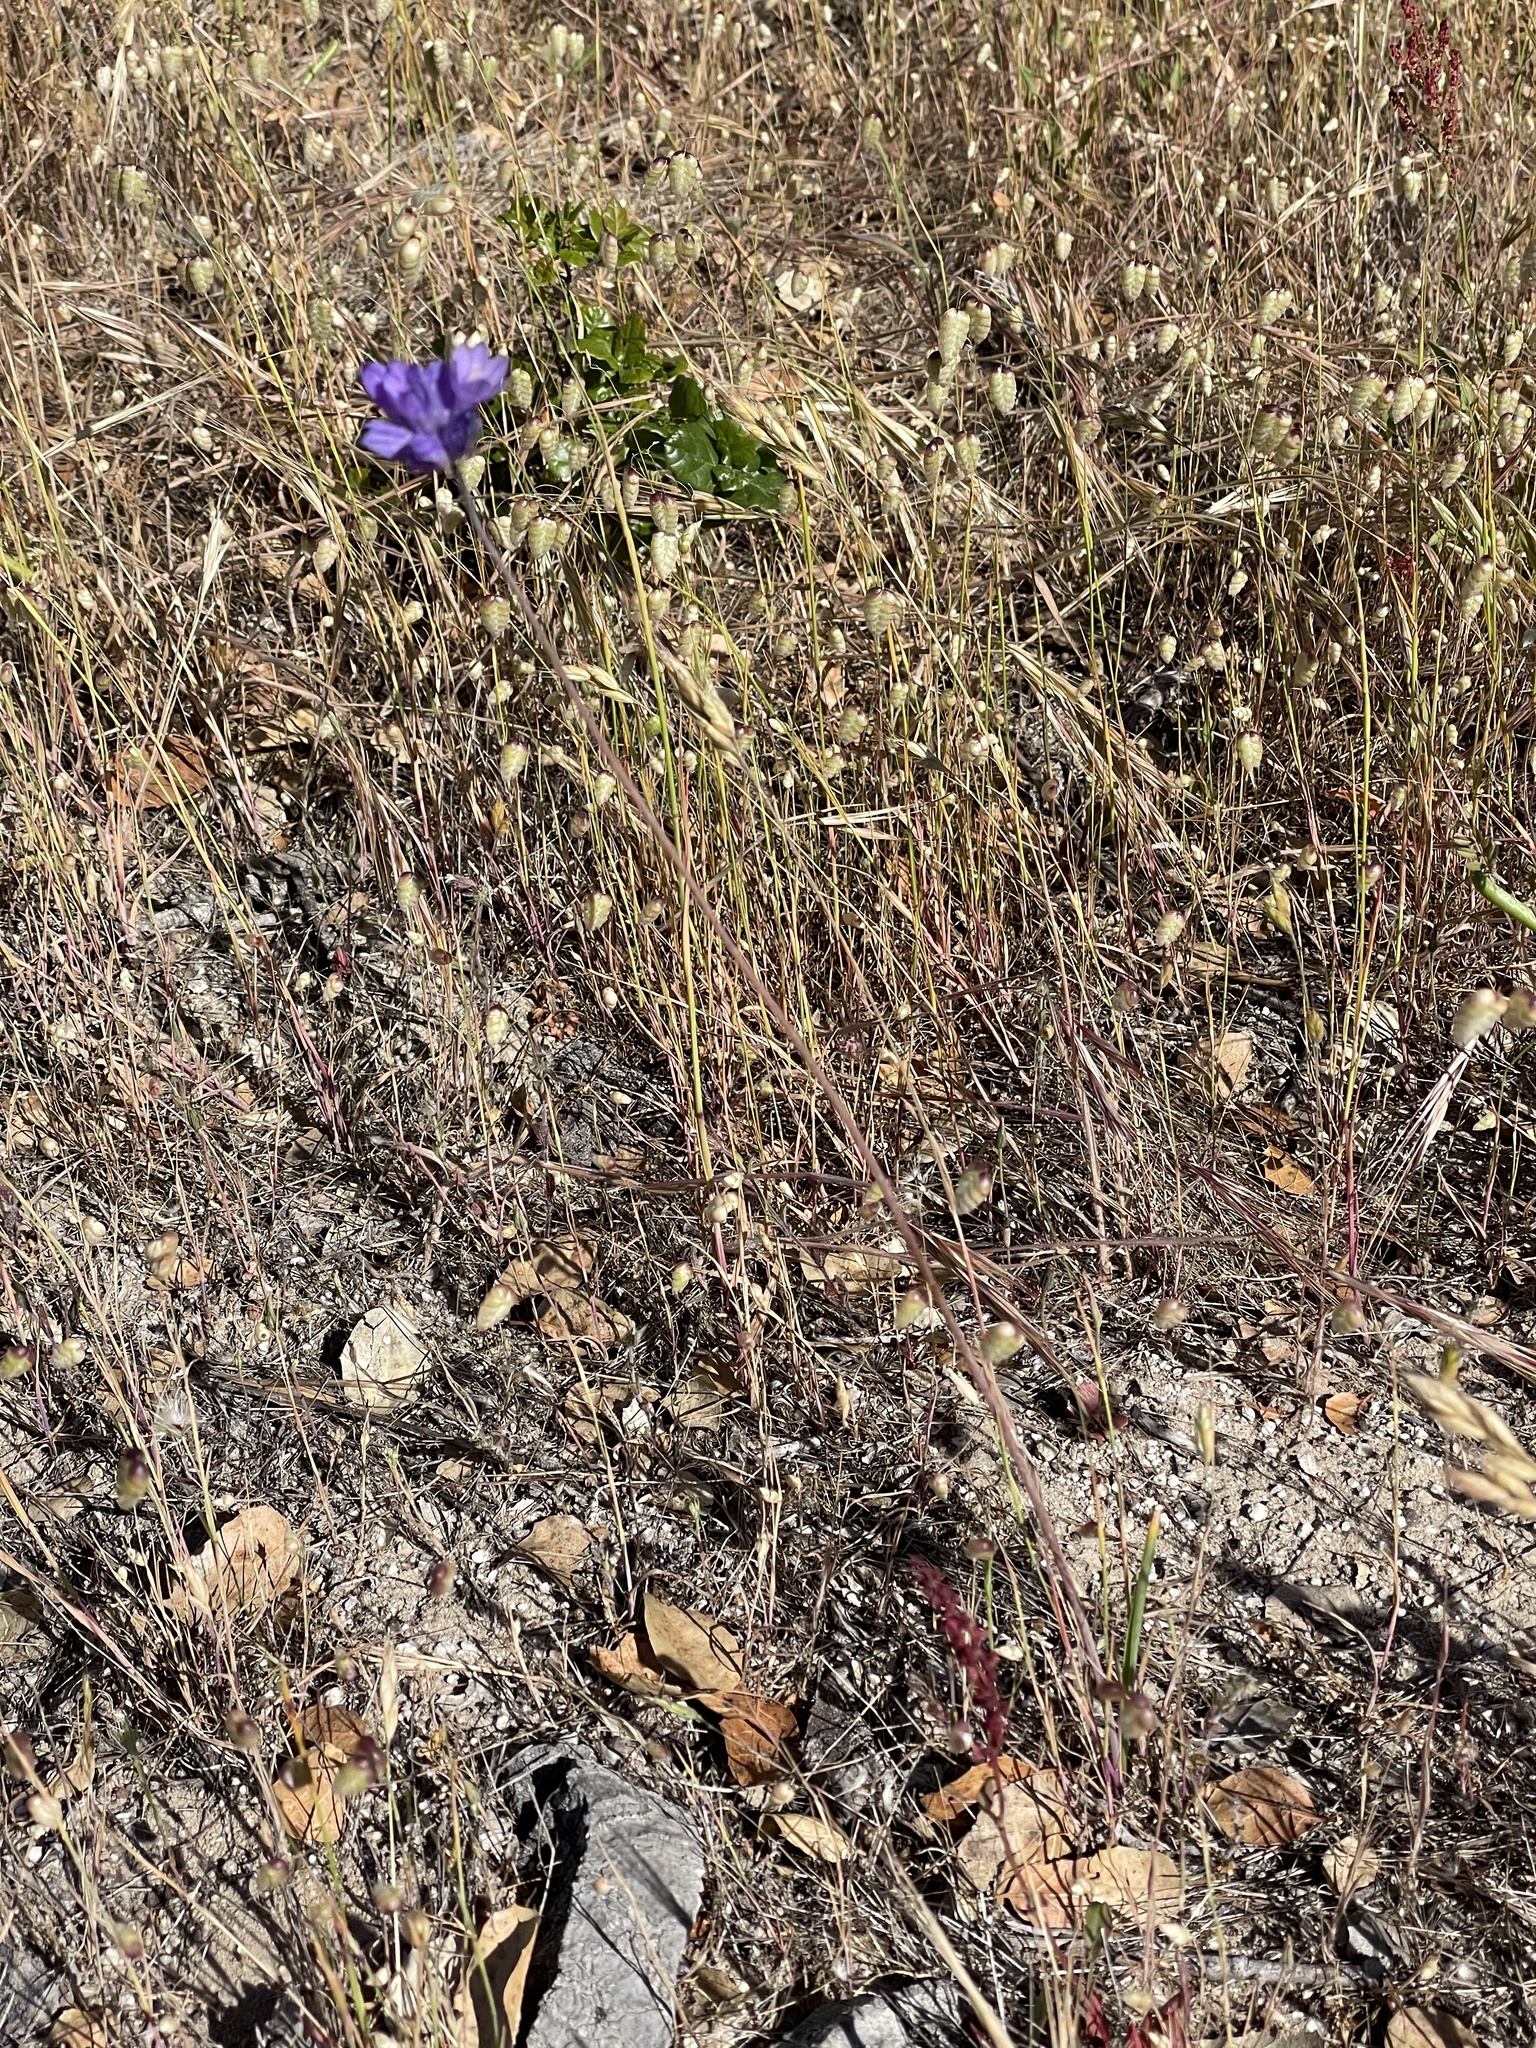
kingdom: Plantae
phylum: Tracheophyta
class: Liliopsida
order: Asparagales
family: Asparagaceae
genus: Dipterostemon
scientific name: Dipterostemon capitatus
